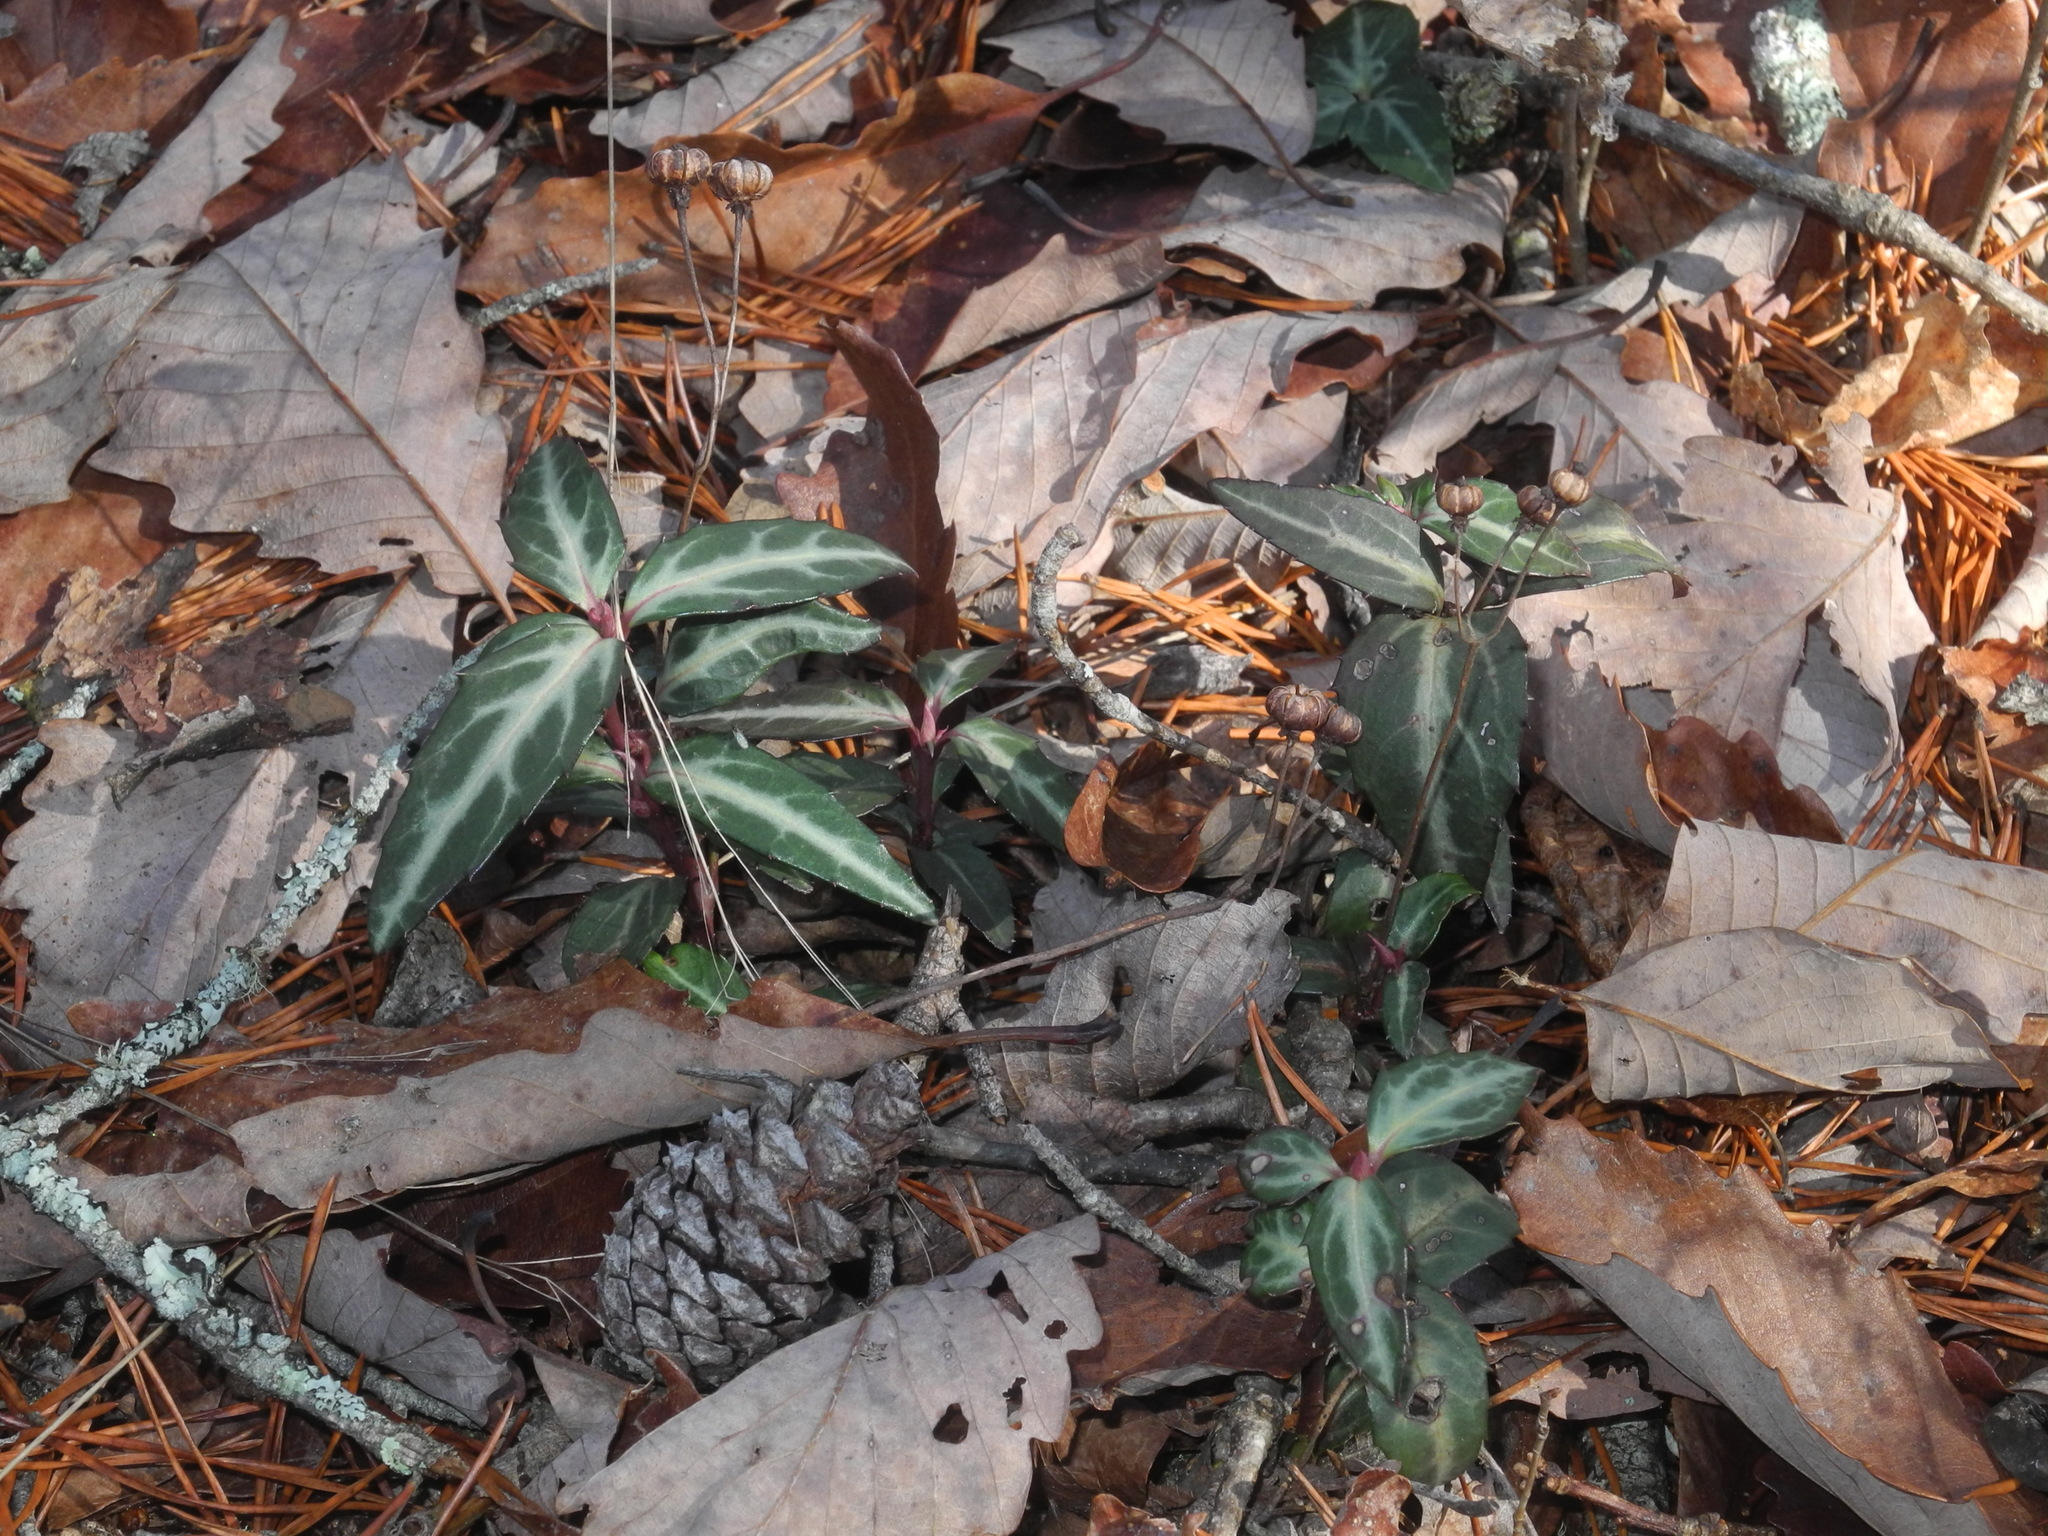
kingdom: Plantae
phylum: Tracheophyta
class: Magnoliopsida
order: Ericales
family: Ericaceae
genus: Chimaphila
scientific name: Chimaphila maculata
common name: Spotted pipsissewa
